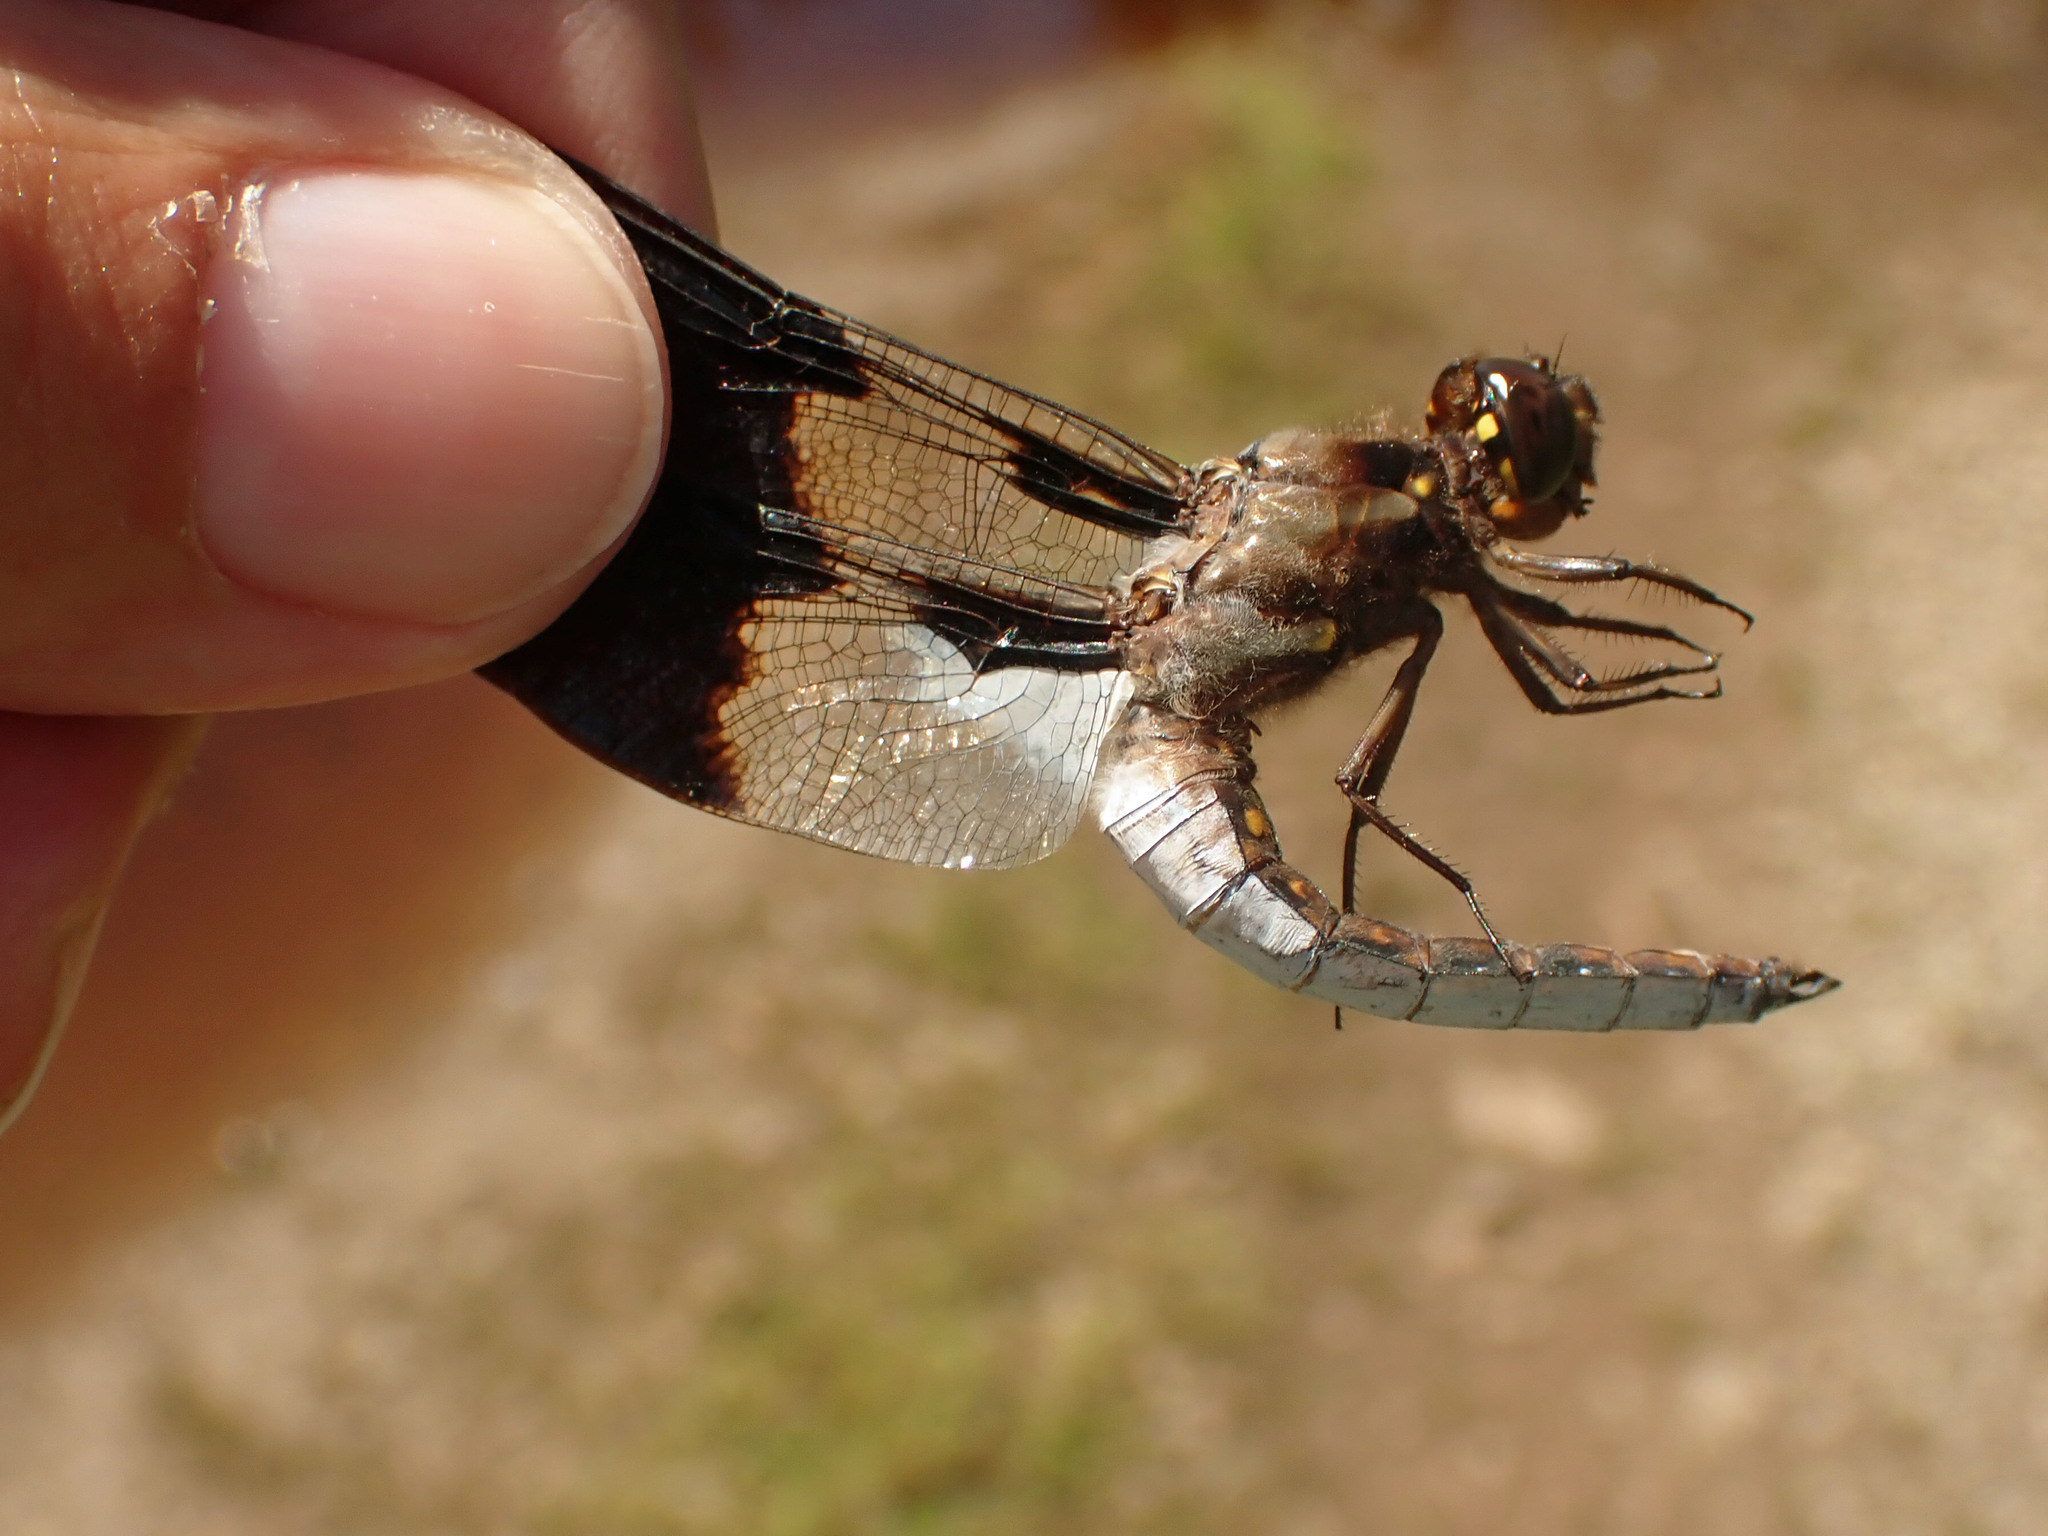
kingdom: Animalia
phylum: Arthropoda
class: Insecta
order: Odonata
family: Libellulidae
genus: Plathemis
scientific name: Plathemis lydia
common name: Common whitetail
